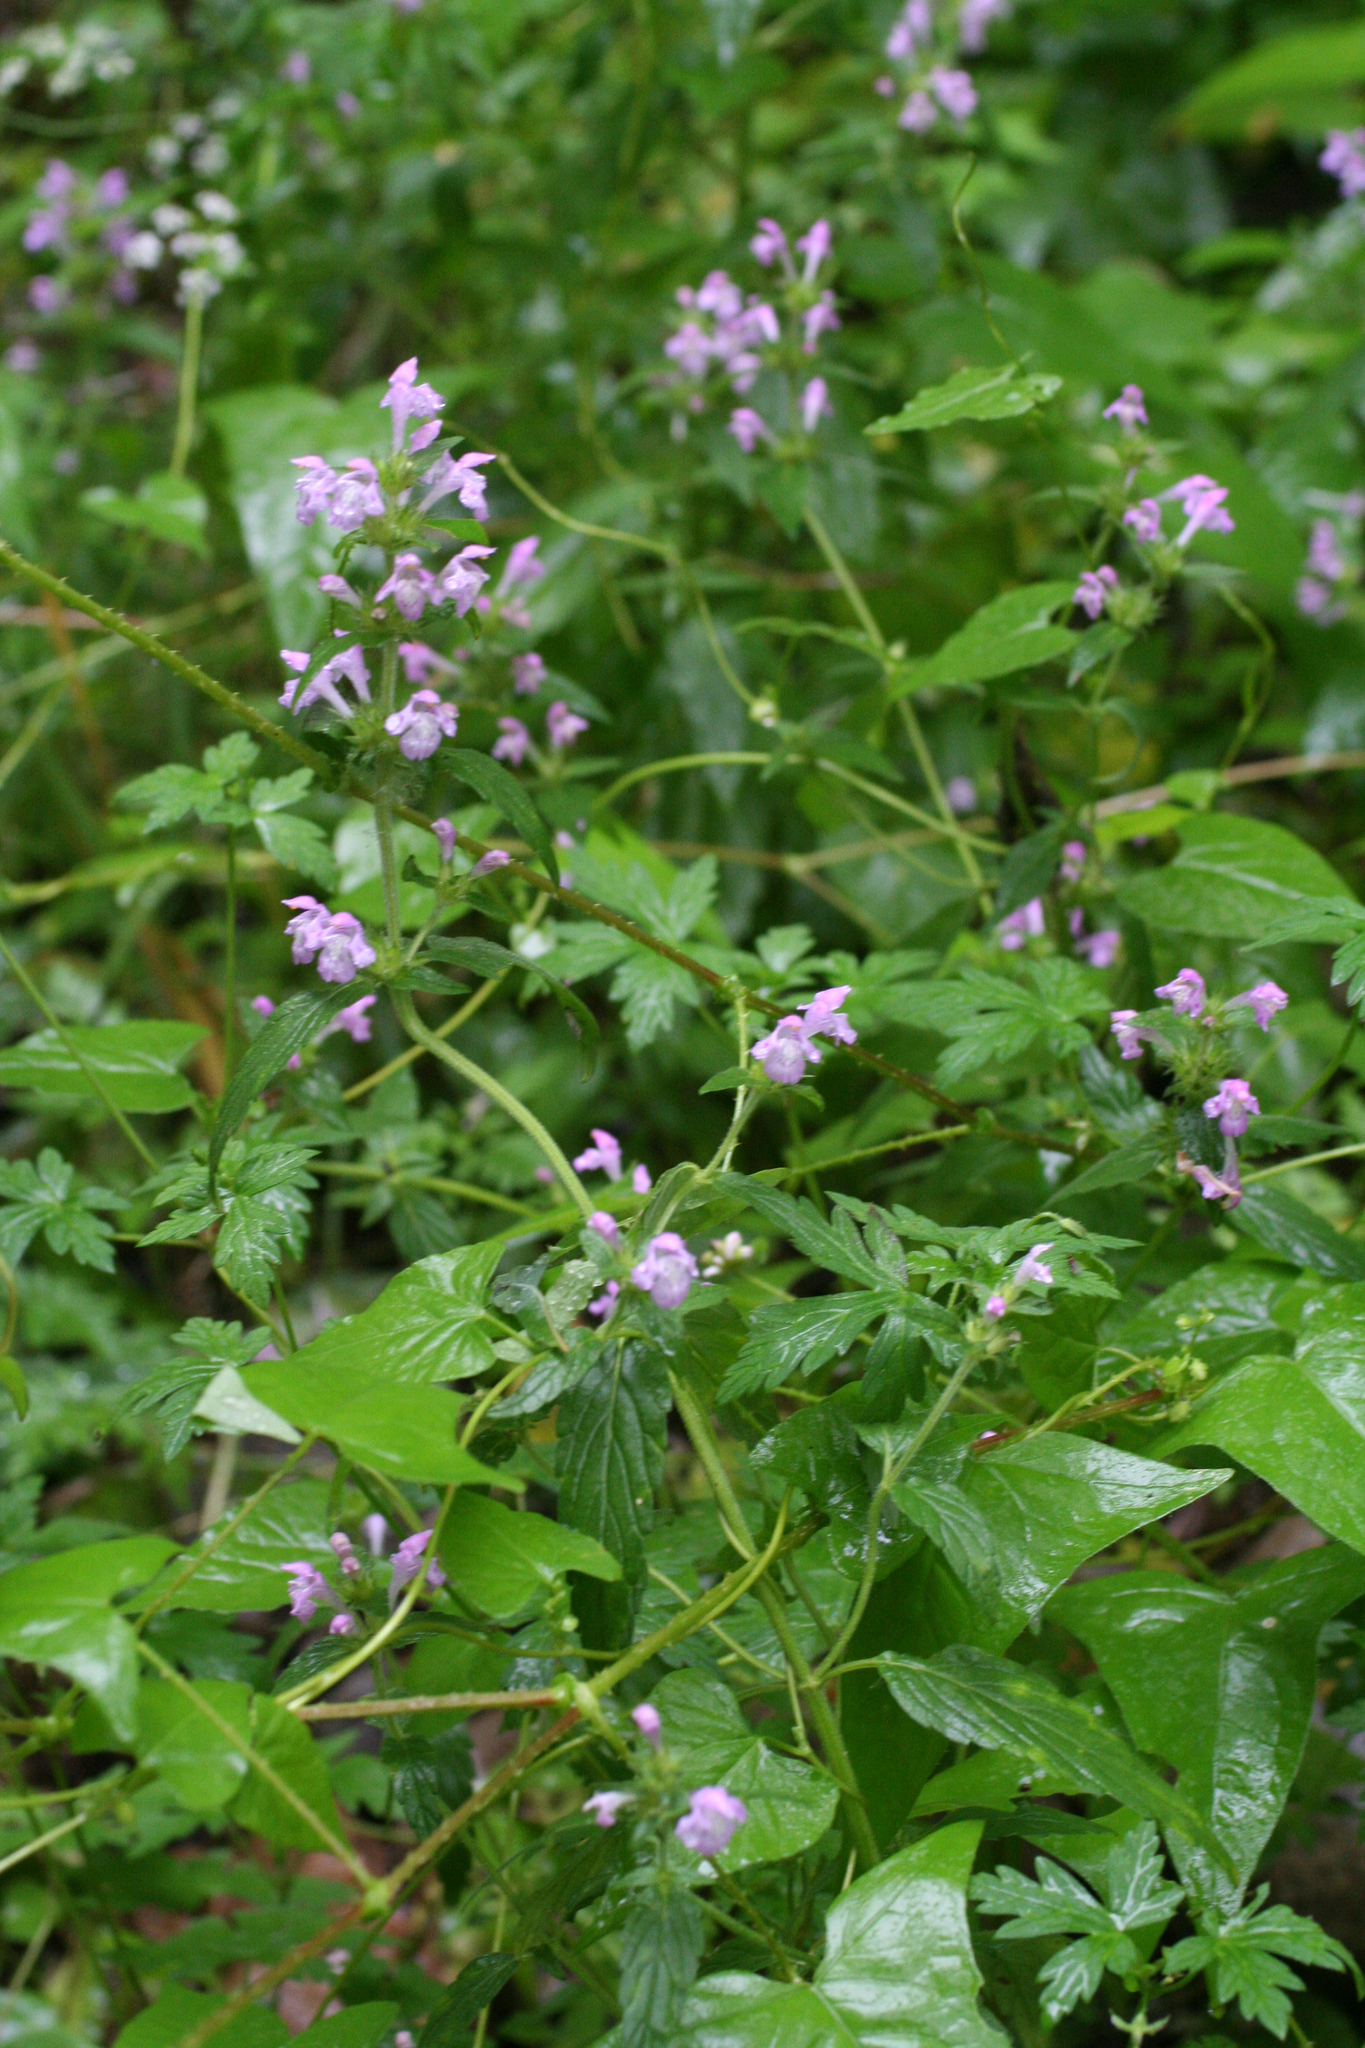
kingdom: Plantae
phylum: Tracheophyta
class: Magnoliopsida
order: Lamiales
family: Lamiaceae
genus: Galeopsis
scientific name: Galeopsis ladanum
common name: Broad-leaved hemp-nettle
